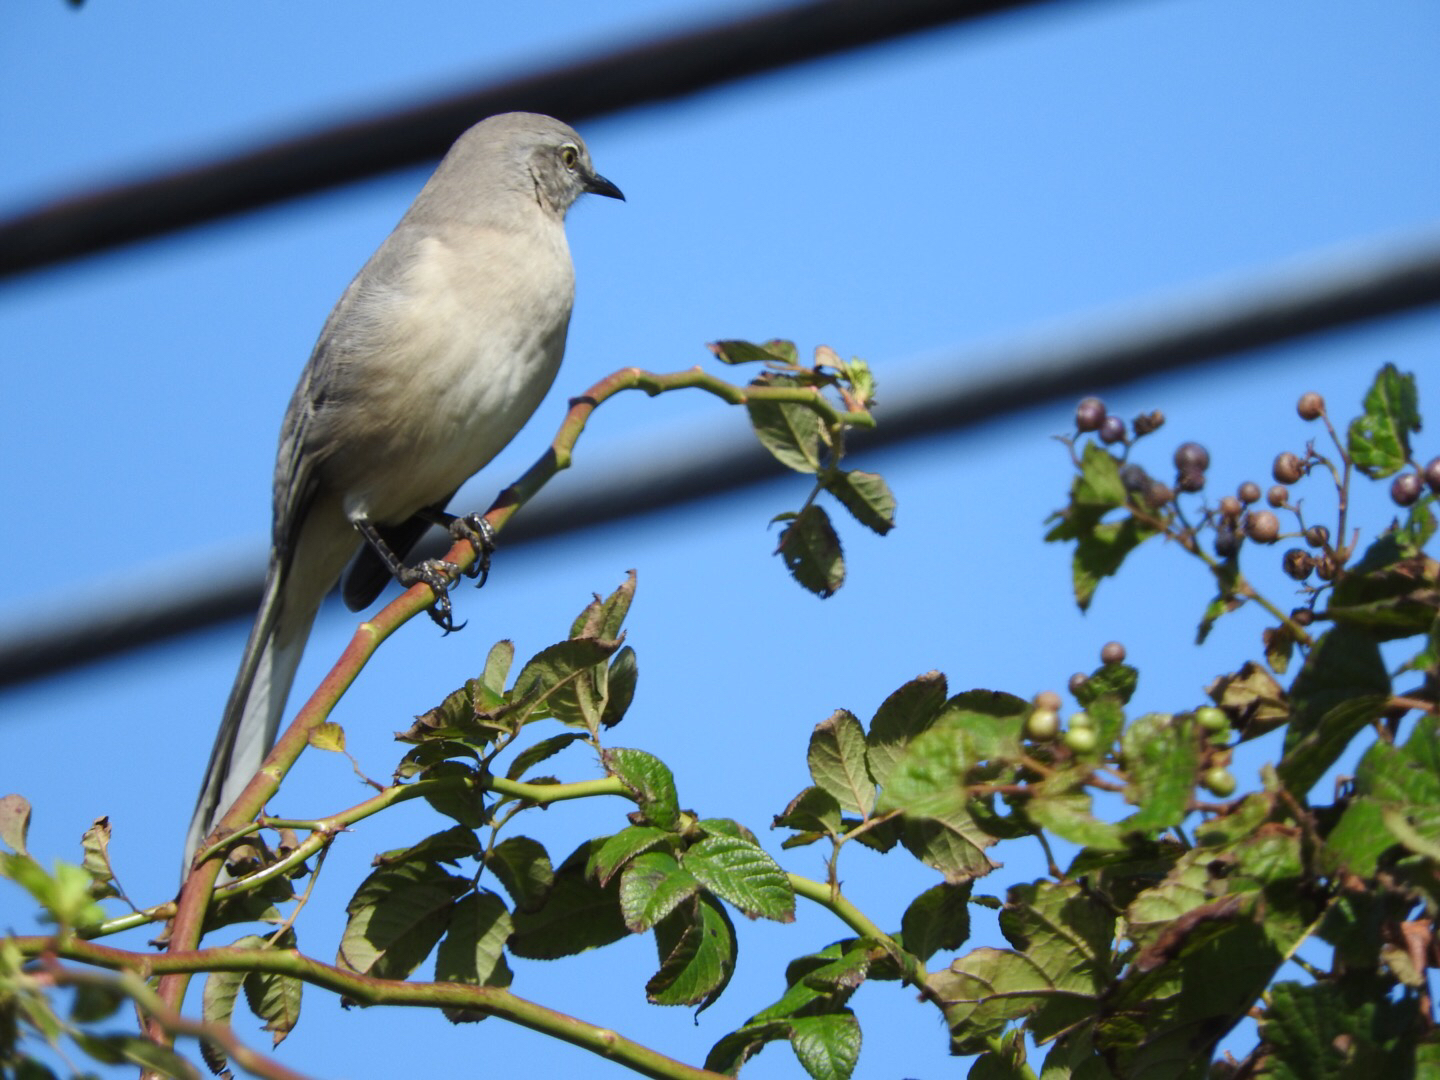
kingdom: Animalia
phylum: Chordata
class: Aves
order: Passeriformes
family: Mimidae
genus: Mimus
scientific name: Mimus polyglottos
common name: Northern mockingbird
